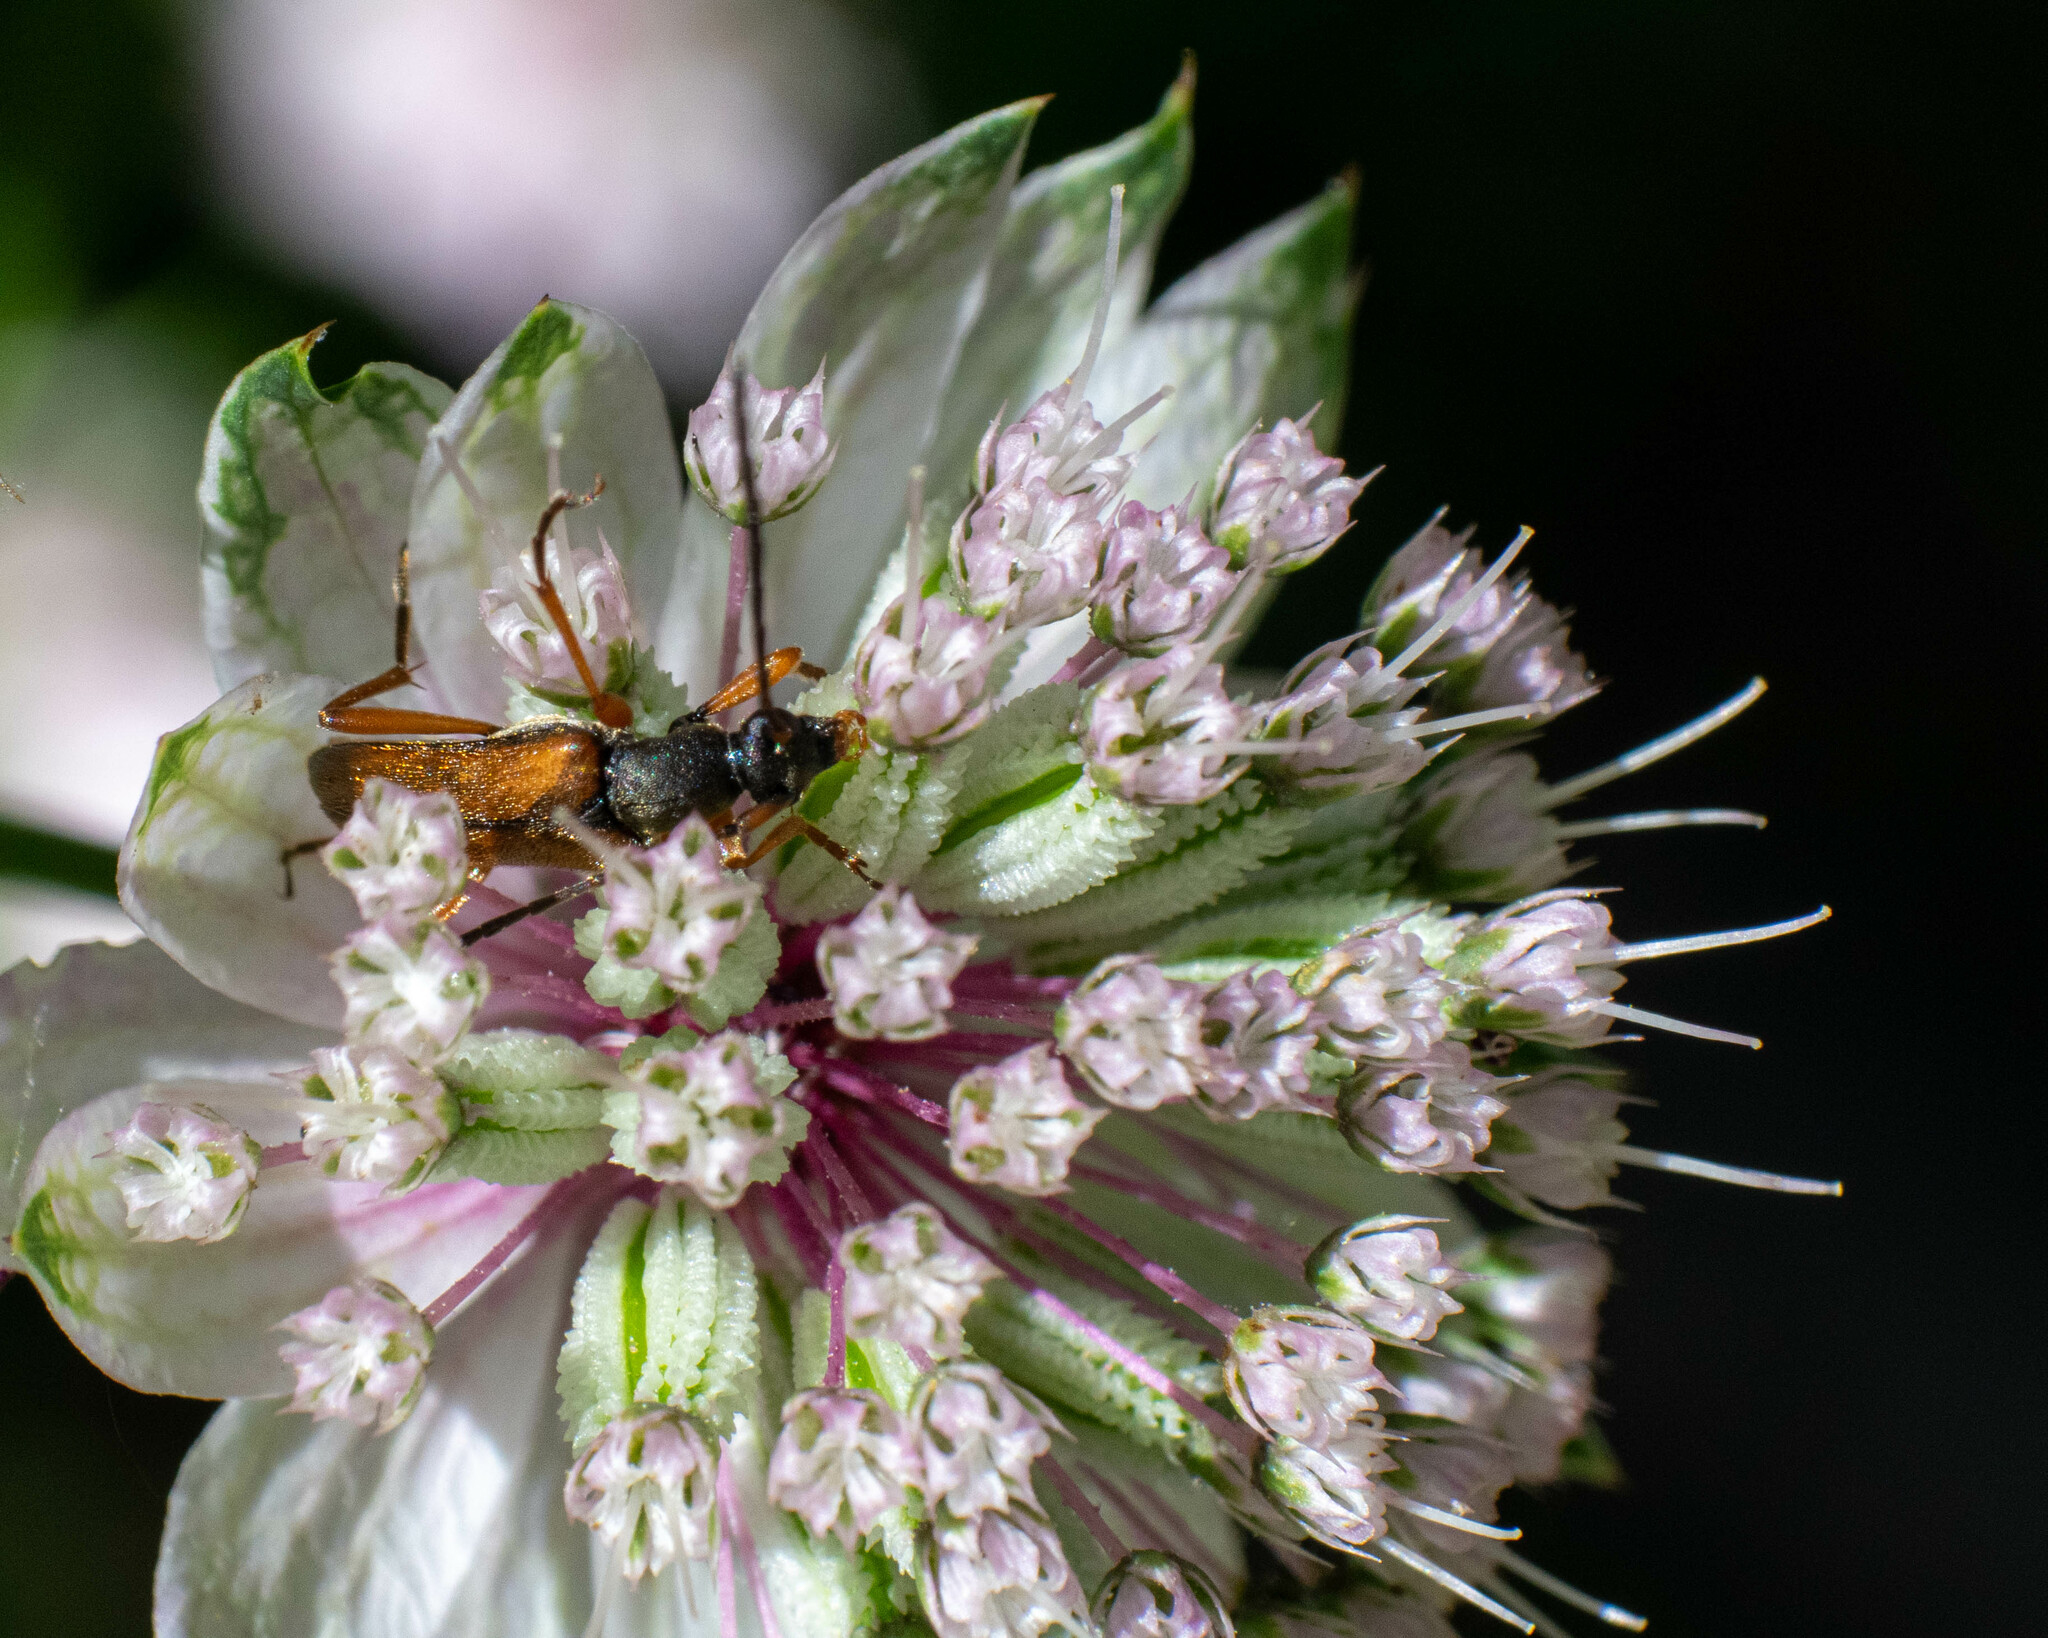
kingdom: Animalia
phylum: Arthropoda
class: Insecta
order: Coleoptera
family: Cerambycidae
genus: Alosterna
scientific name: Alosterna tabacicolor
